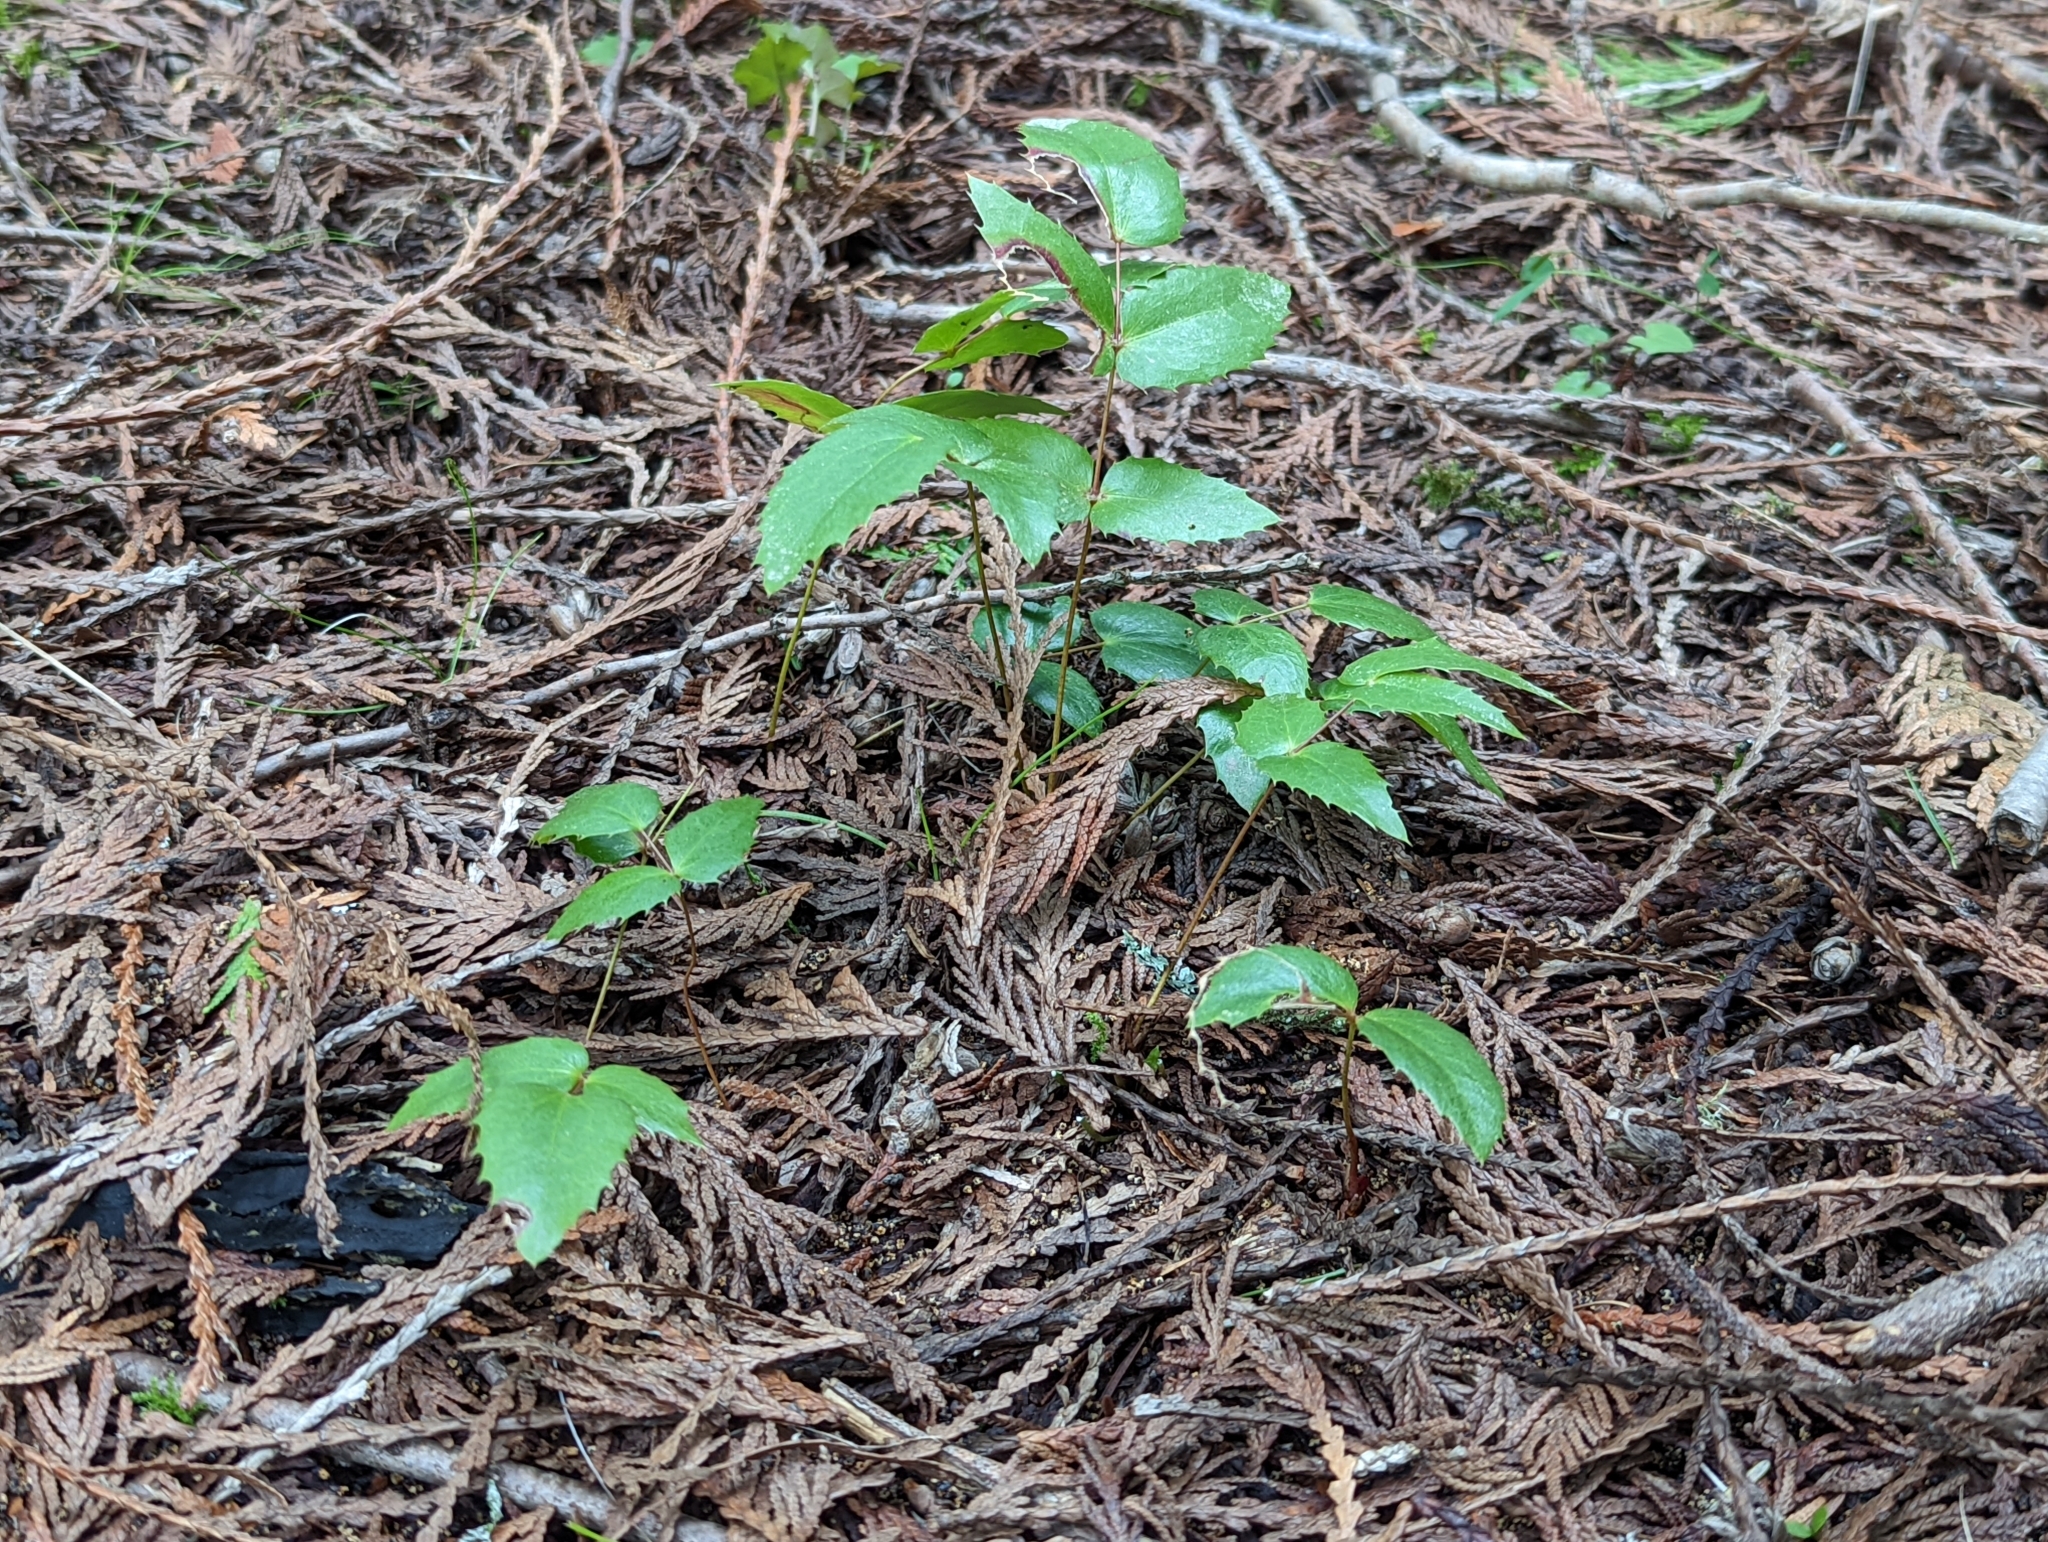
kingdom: Plantae
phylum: Tracheophyta
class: Magnoliopsida
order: Ranunculales
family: Berberidaceae
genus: Mahonia
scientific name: Mahonia nervosa
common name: Cascade oregon-grape
